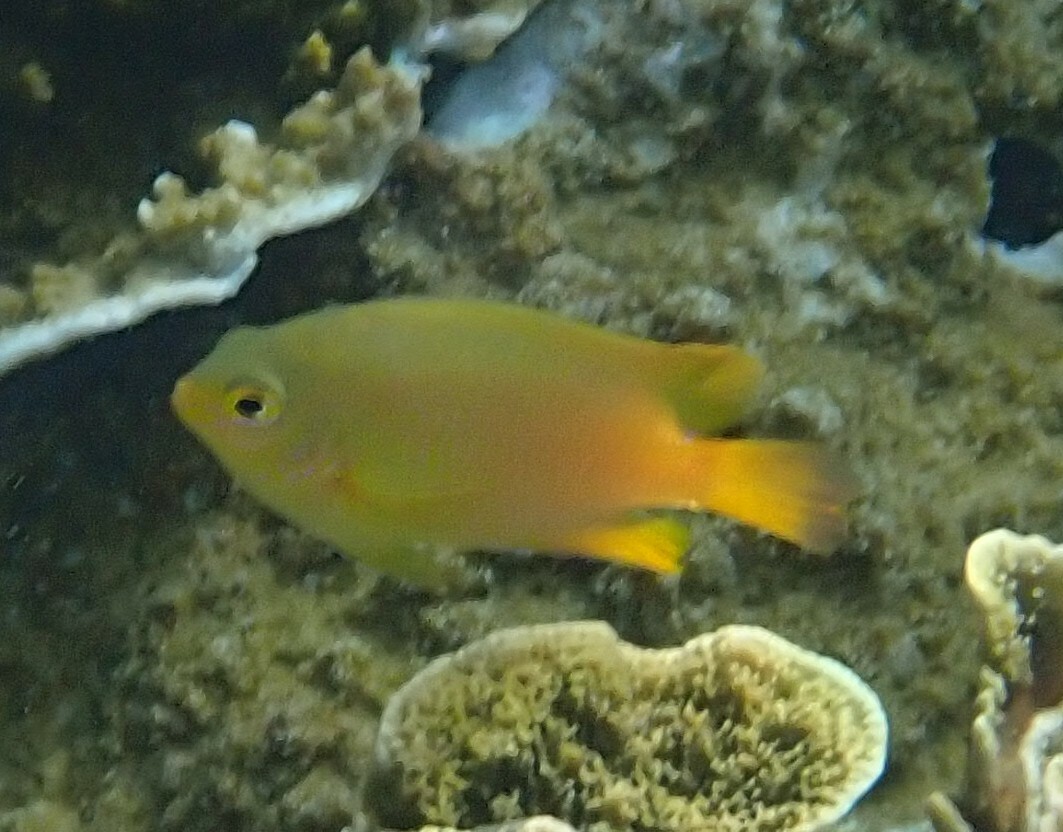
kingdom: Animalia
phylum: Chordata
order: Perciformes
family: Pomacentridae
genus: Pomacentrus
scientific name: Pomacentrus moluccensis
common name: Lemon damsel
